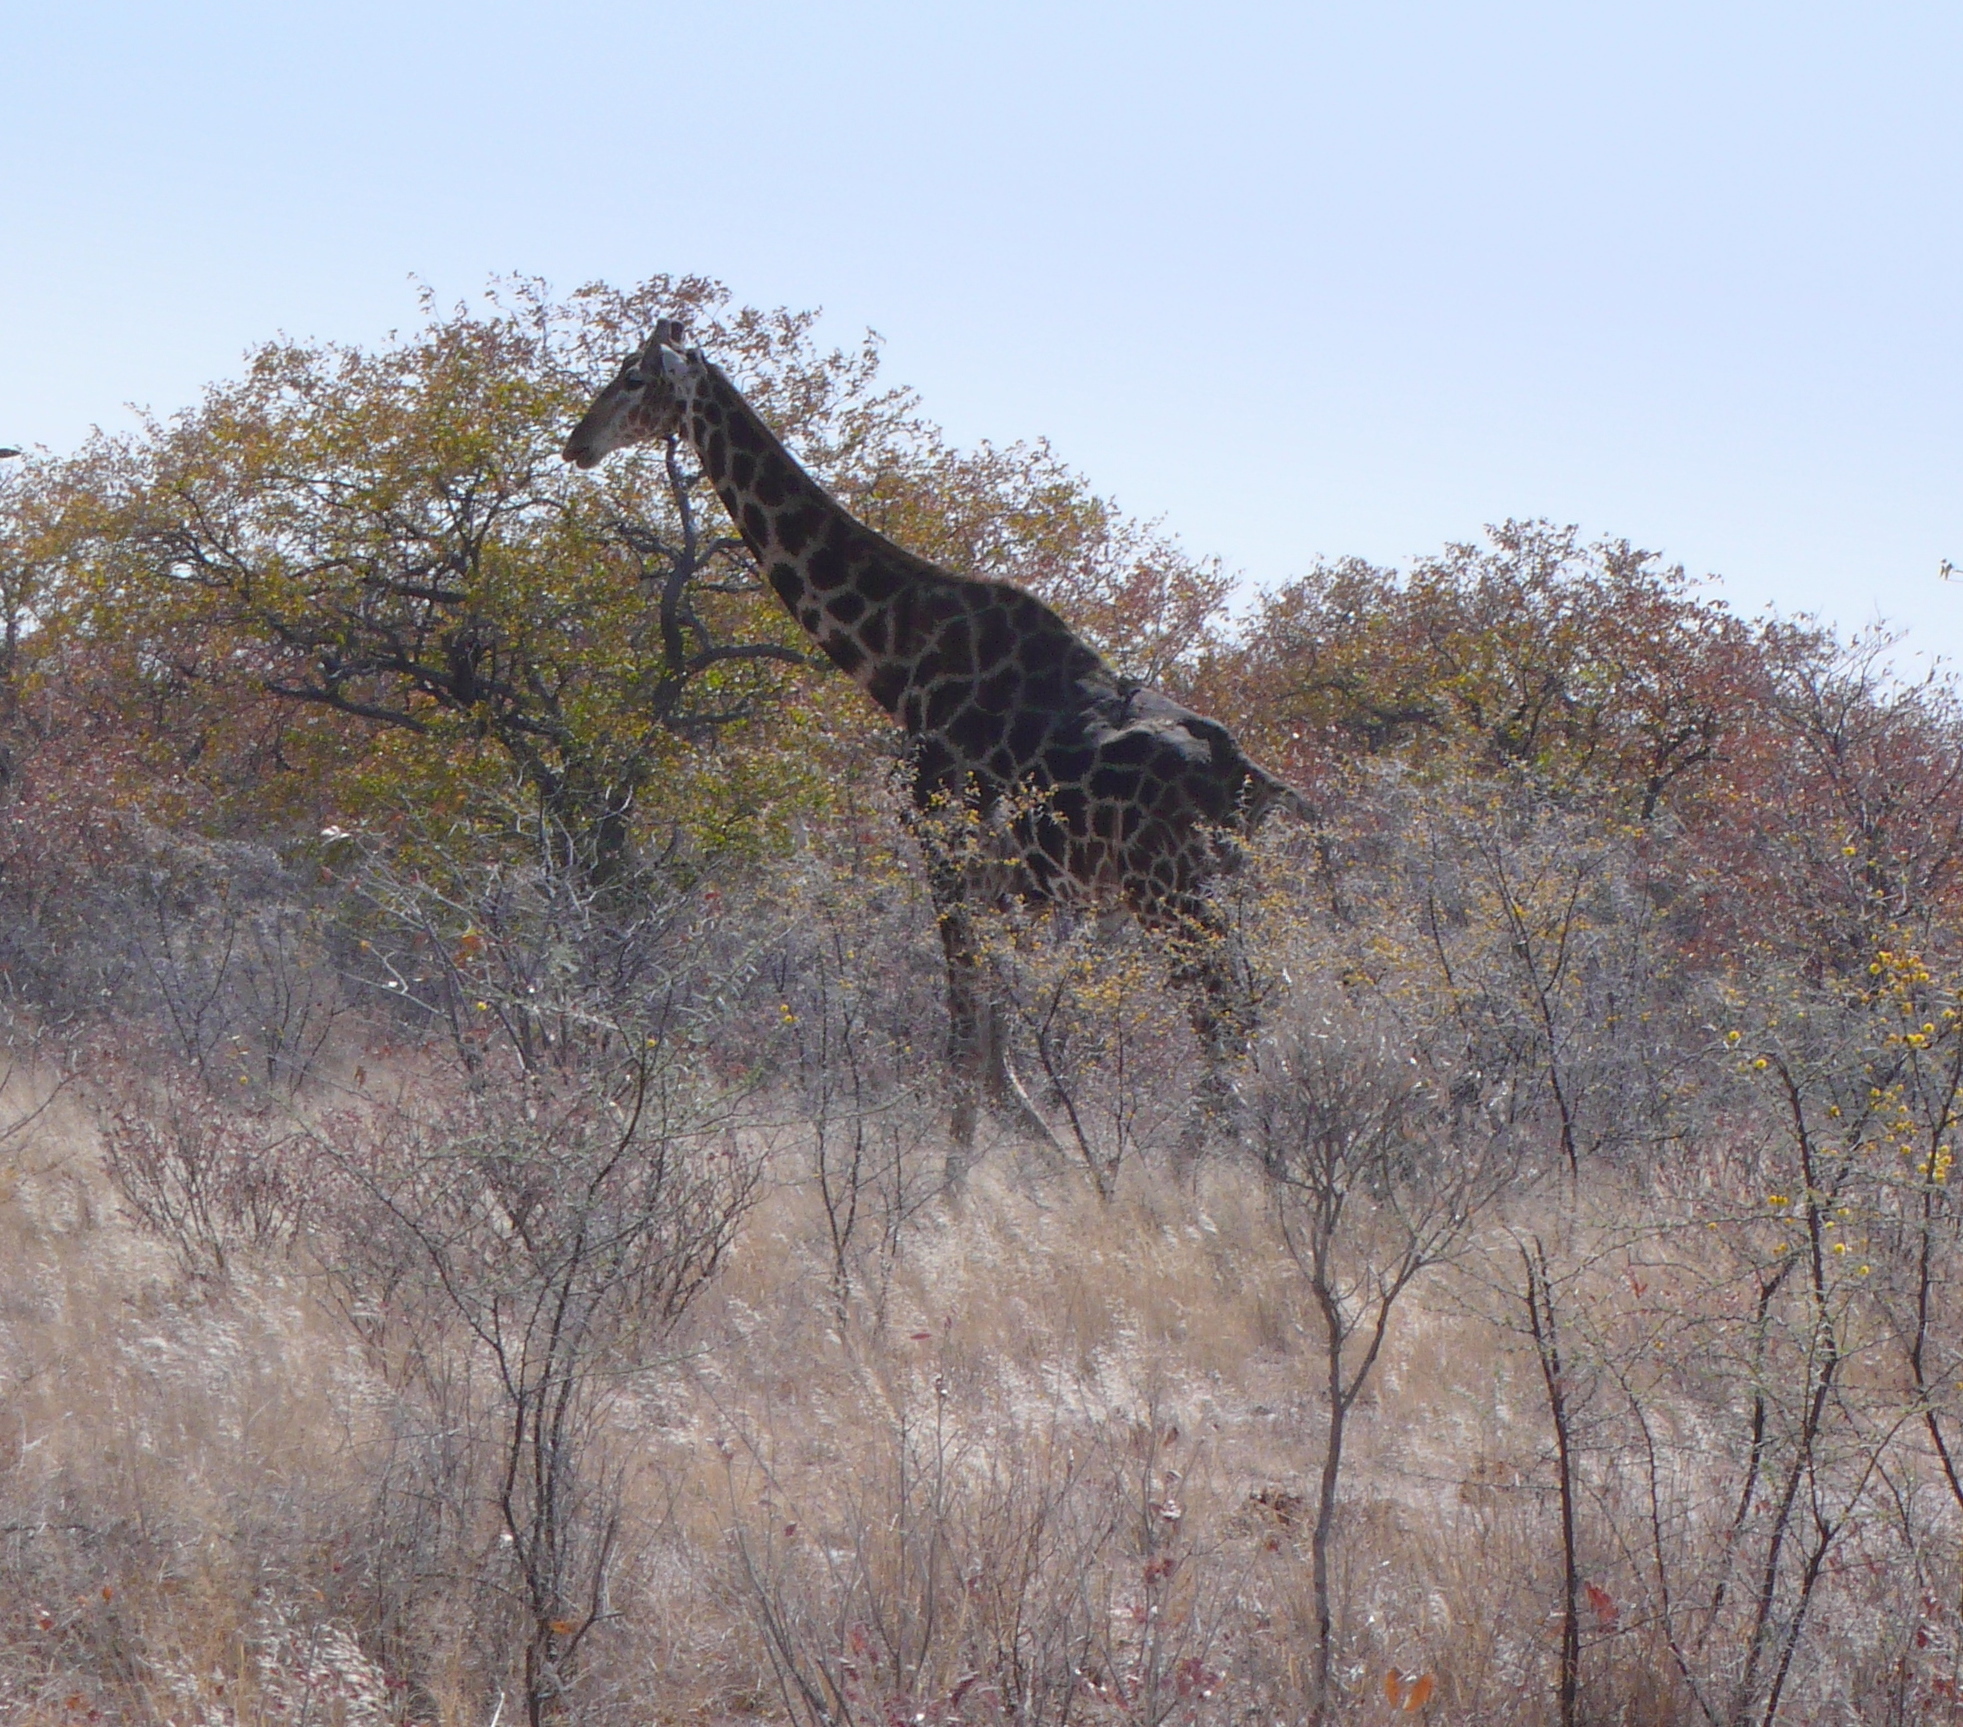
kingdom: Animalia
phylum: Chordata
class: Mammalia
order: Artiodactyla
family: Giraffidae
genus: Giraffa
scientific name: Giraffa giraffa
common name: Southern giraffe
